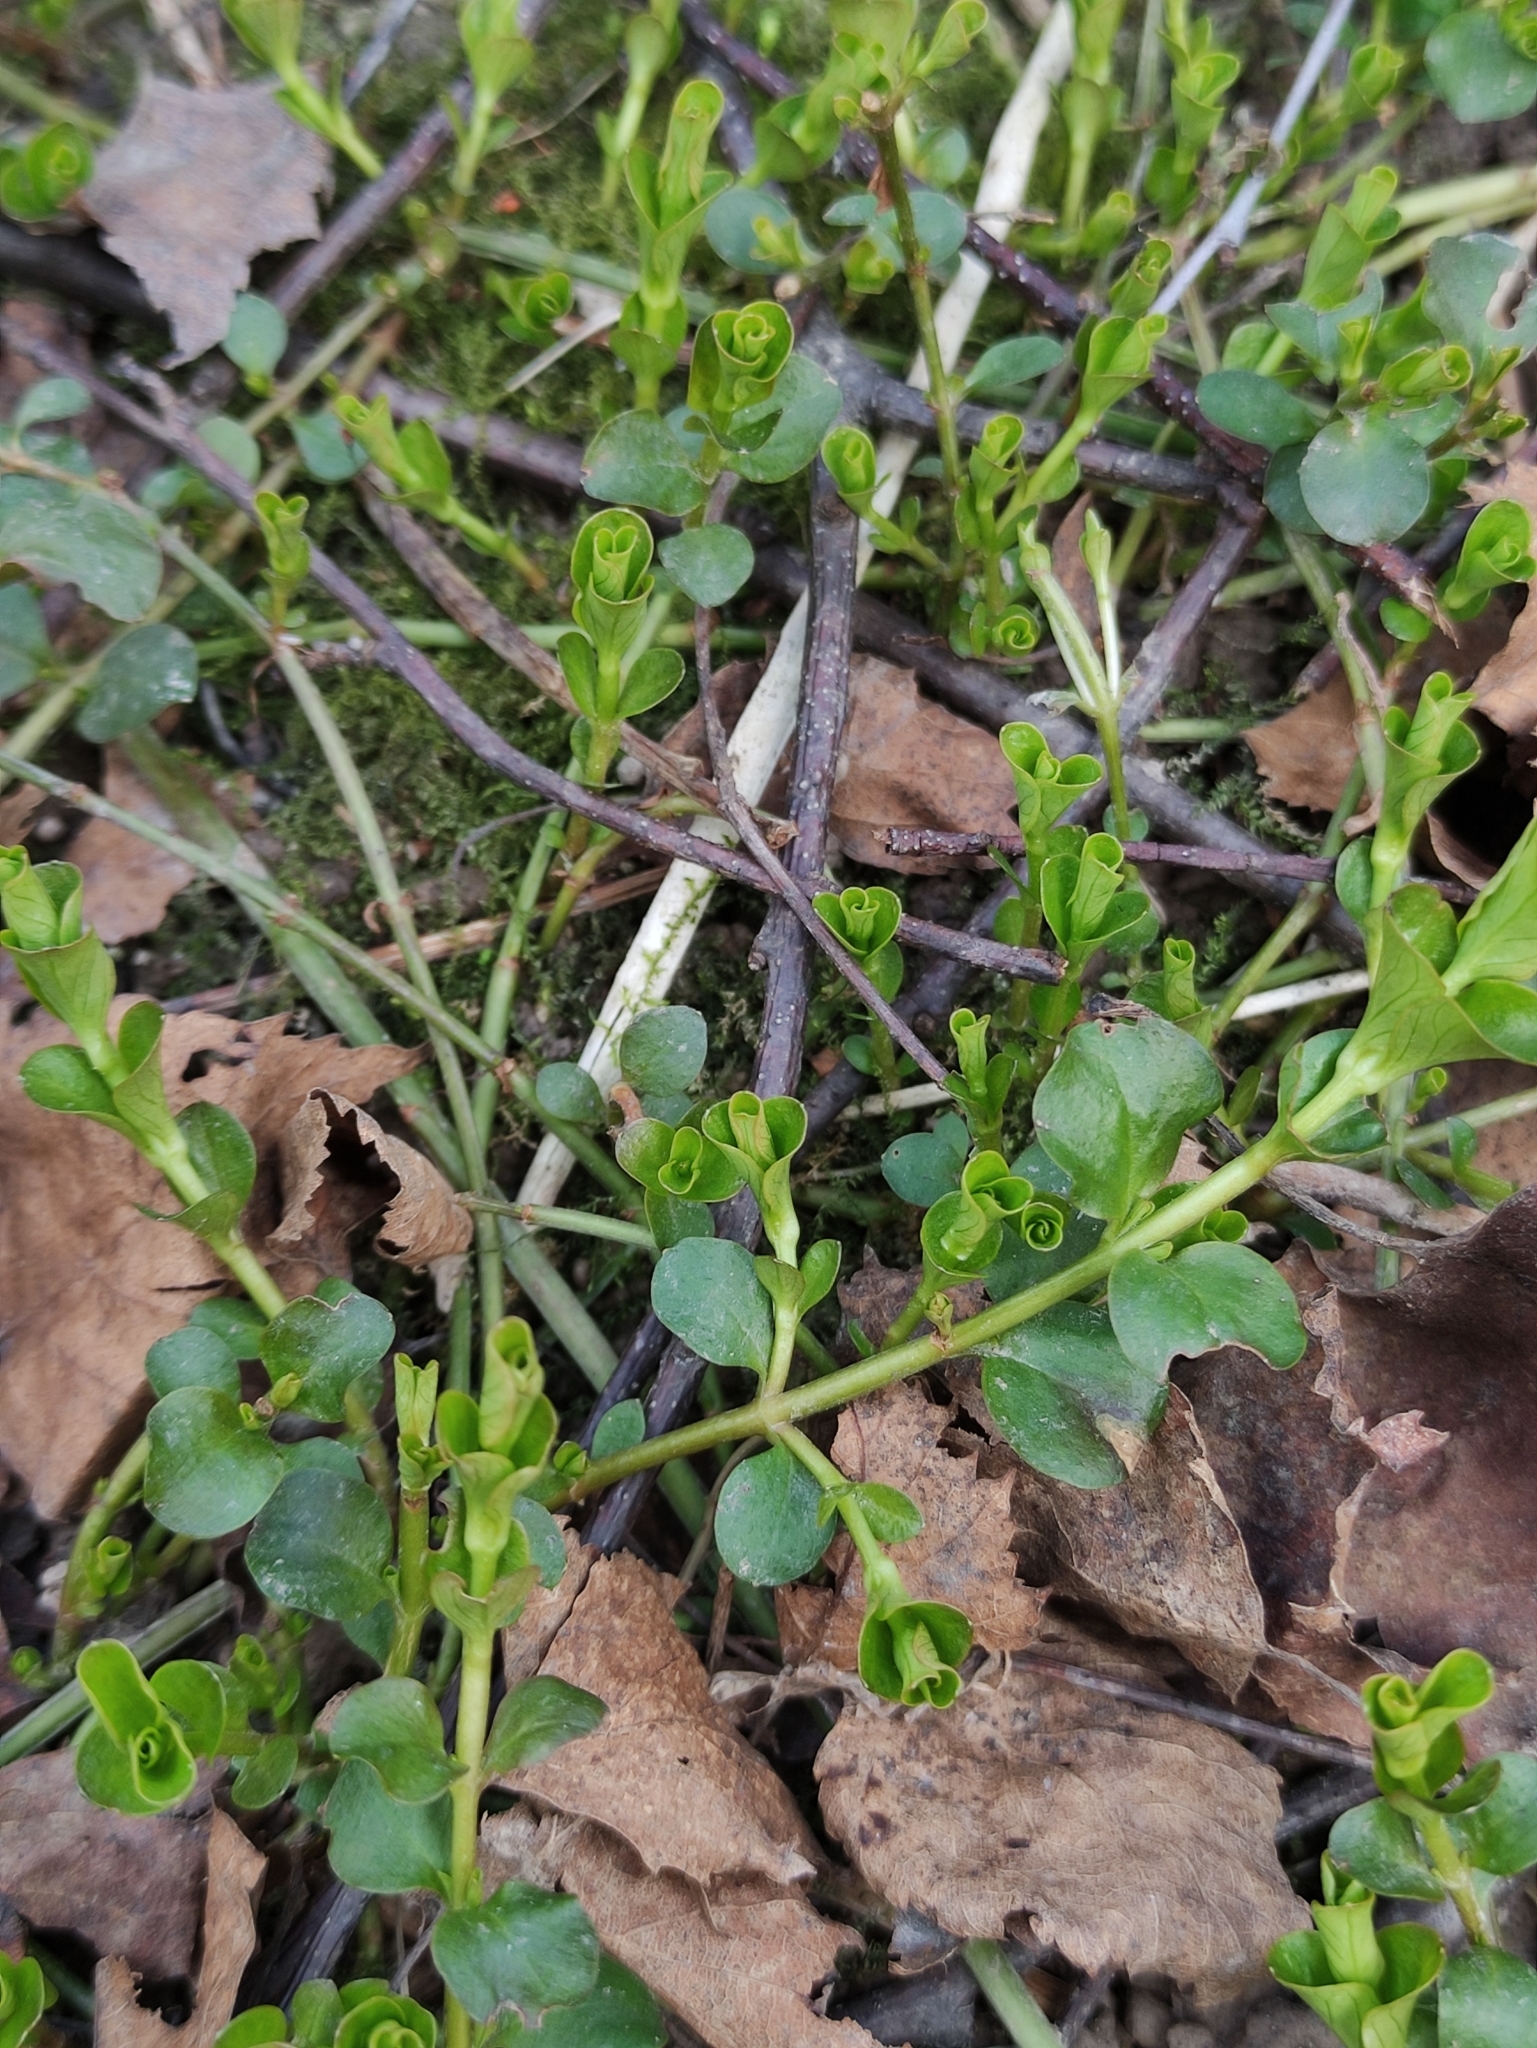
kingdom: Plantae
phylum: Tracheophyta
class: Magnoliopsida
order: Ericales
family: Primulaceae
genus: Lysimachia
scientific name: Lysimachia nummularia
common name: Moneywort
